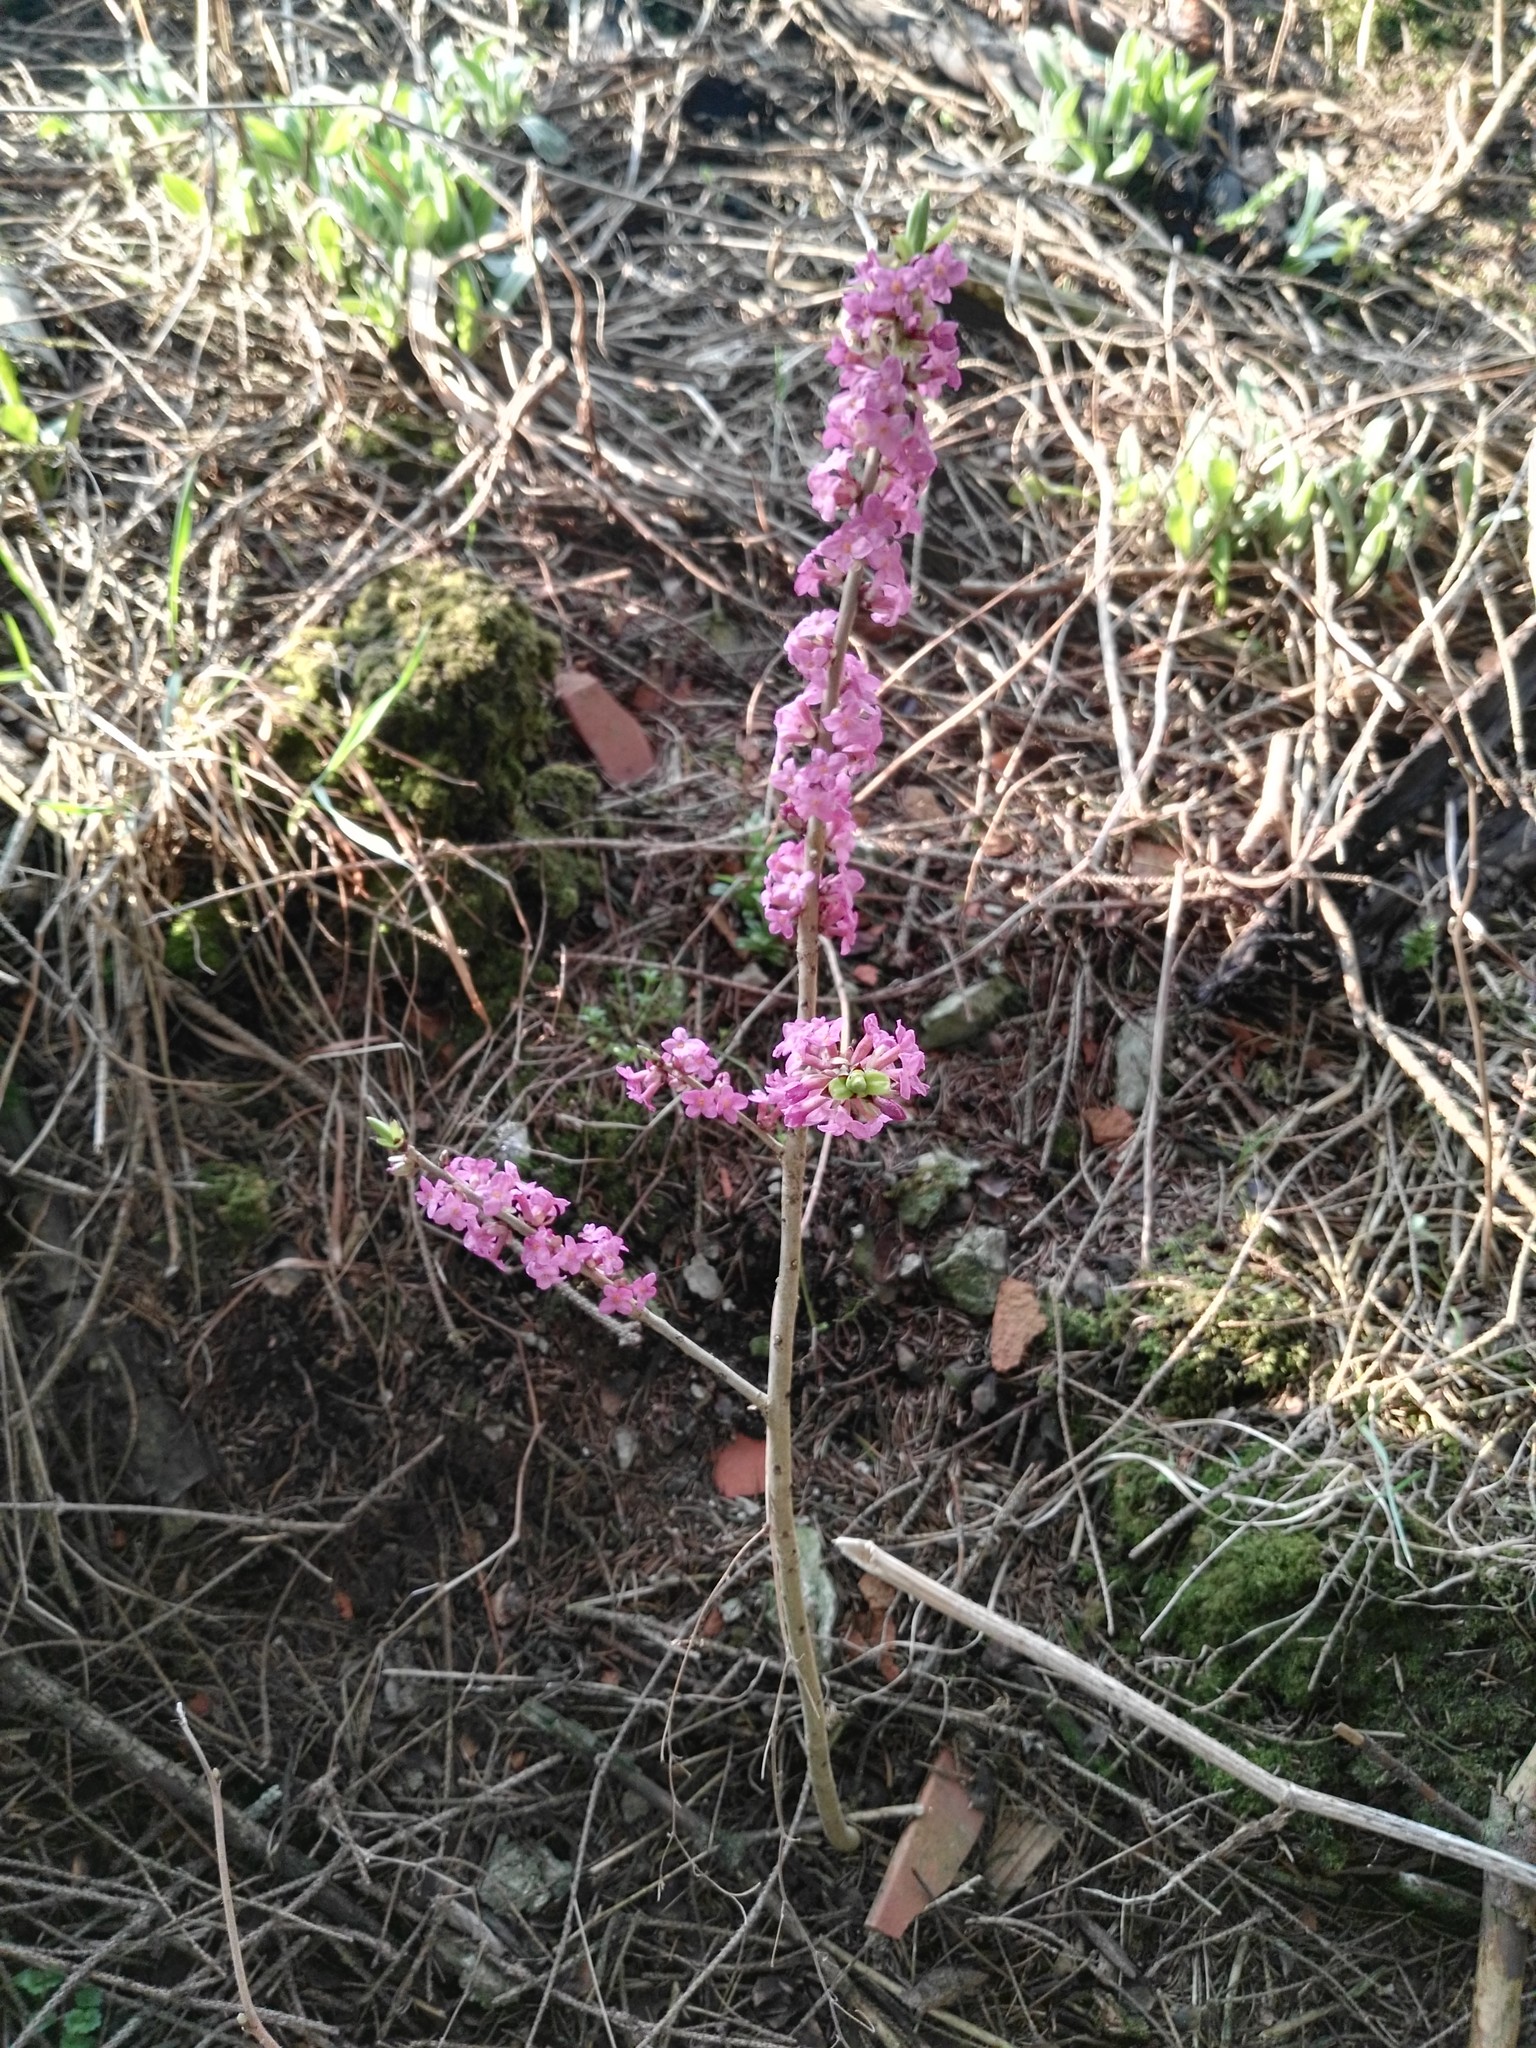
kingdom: Plantae
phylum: Tracheophyta
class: Magnoliopsida
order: Malvales
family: Thymelaeaceae
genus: Daphne
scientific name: Daphne mezereum
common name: Mezereon
